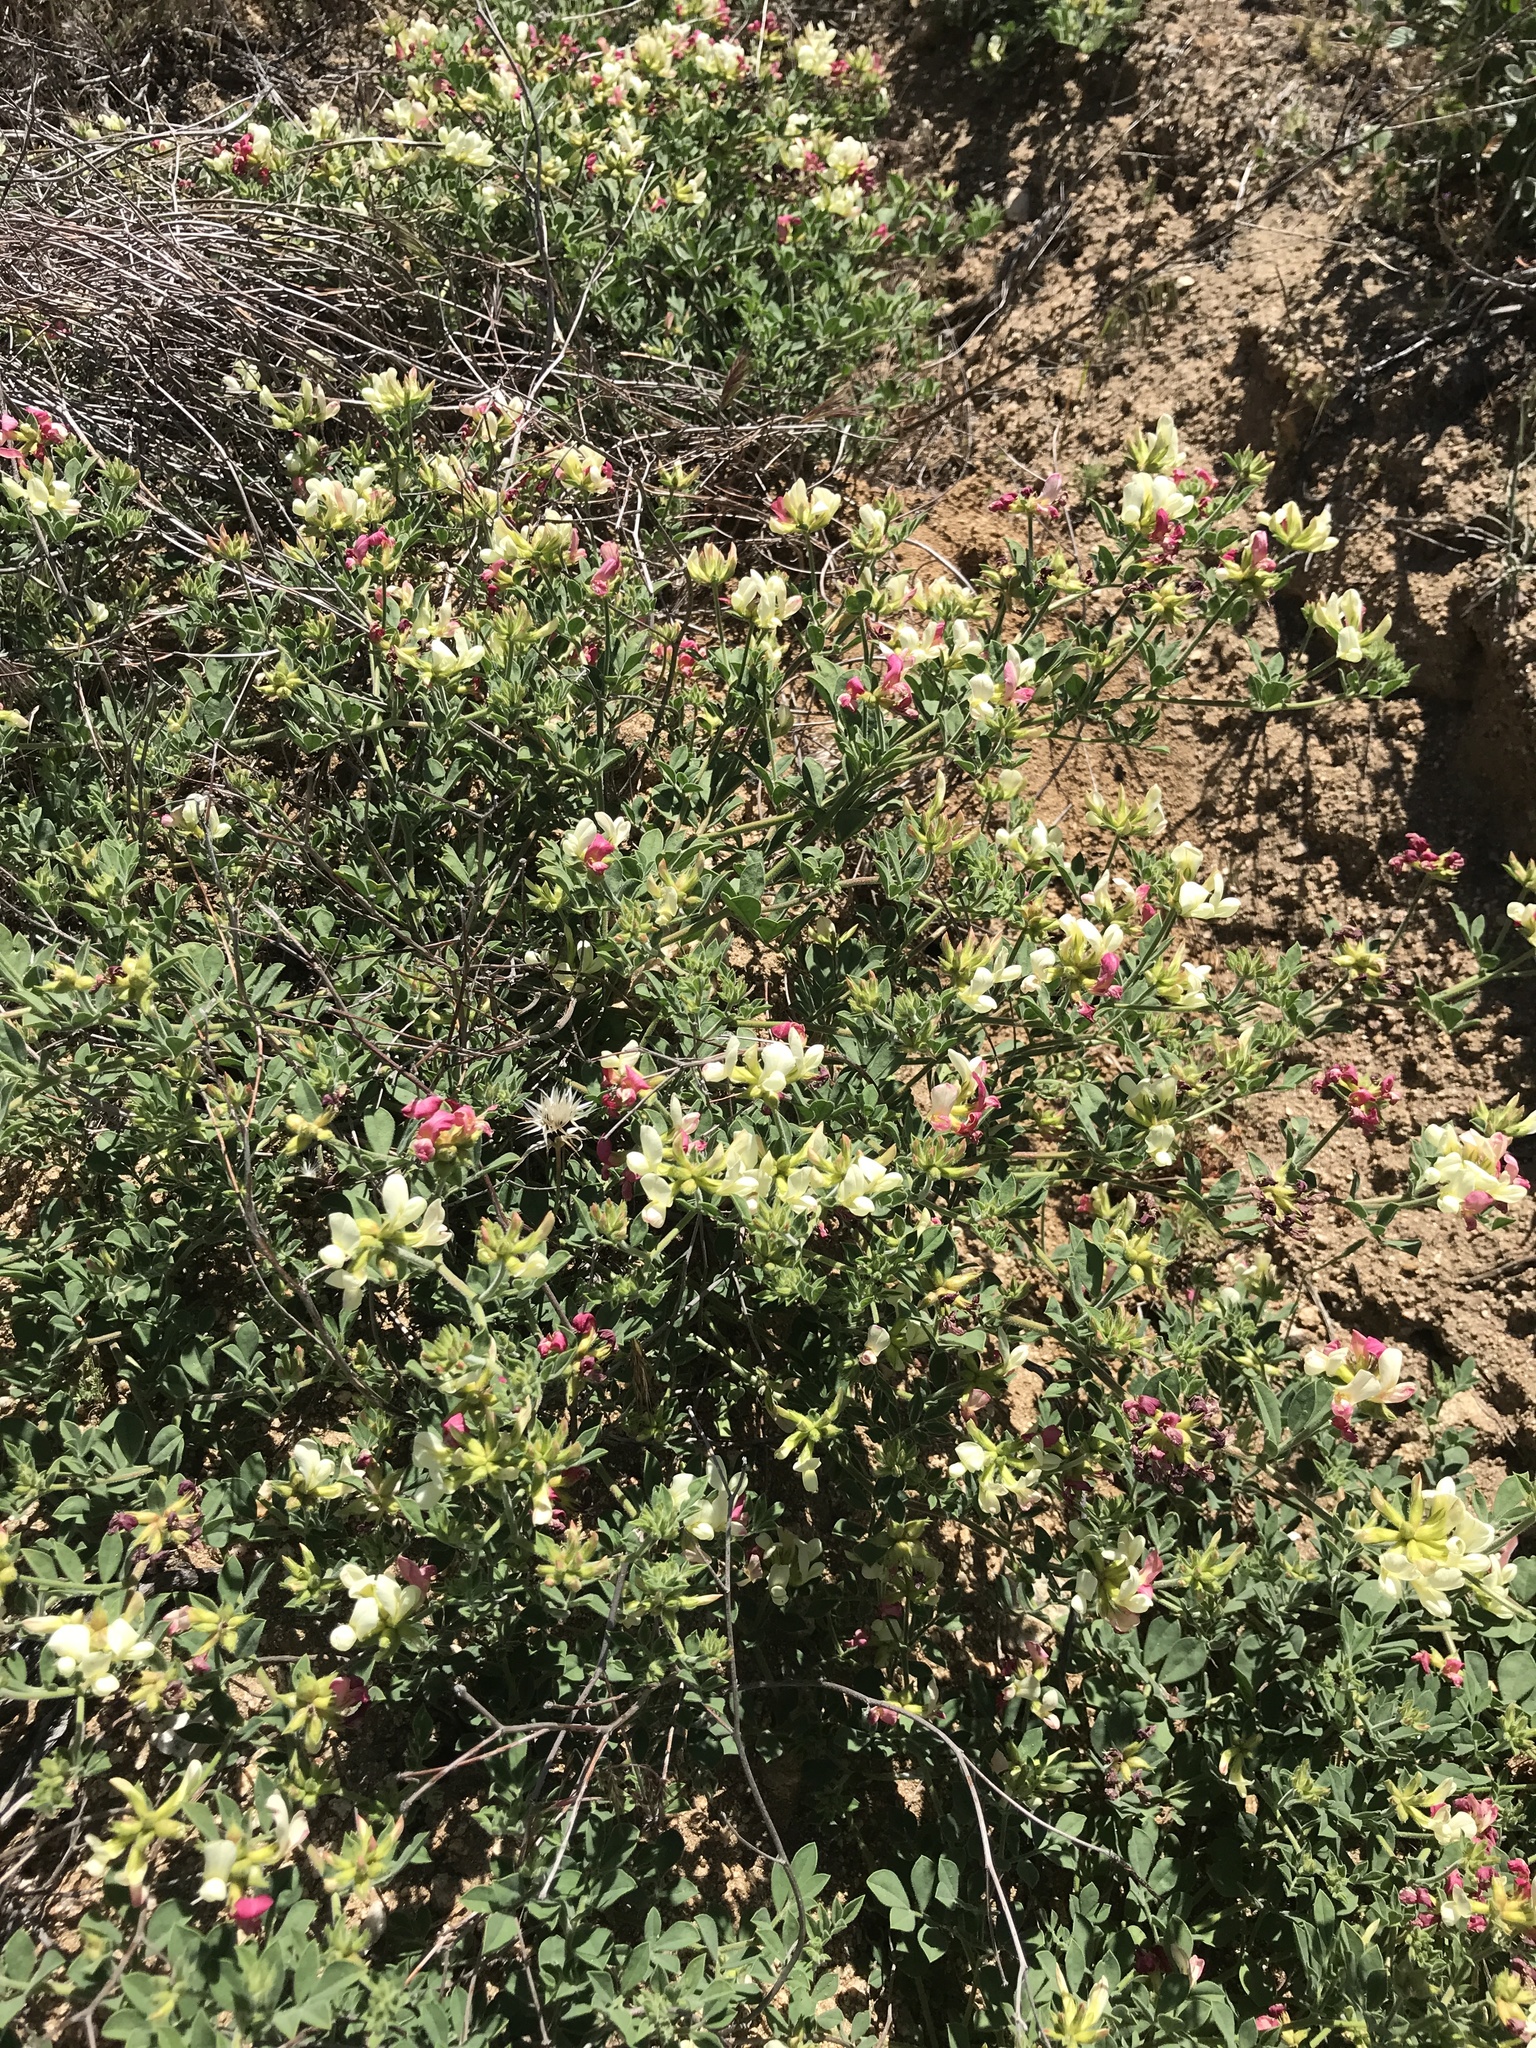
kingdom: Plantae
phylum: Tracheophyta
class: Magnoliopsida
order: Fabales
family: Fabaceae
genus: Acmispon
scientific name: Acmispon grandiflorus
